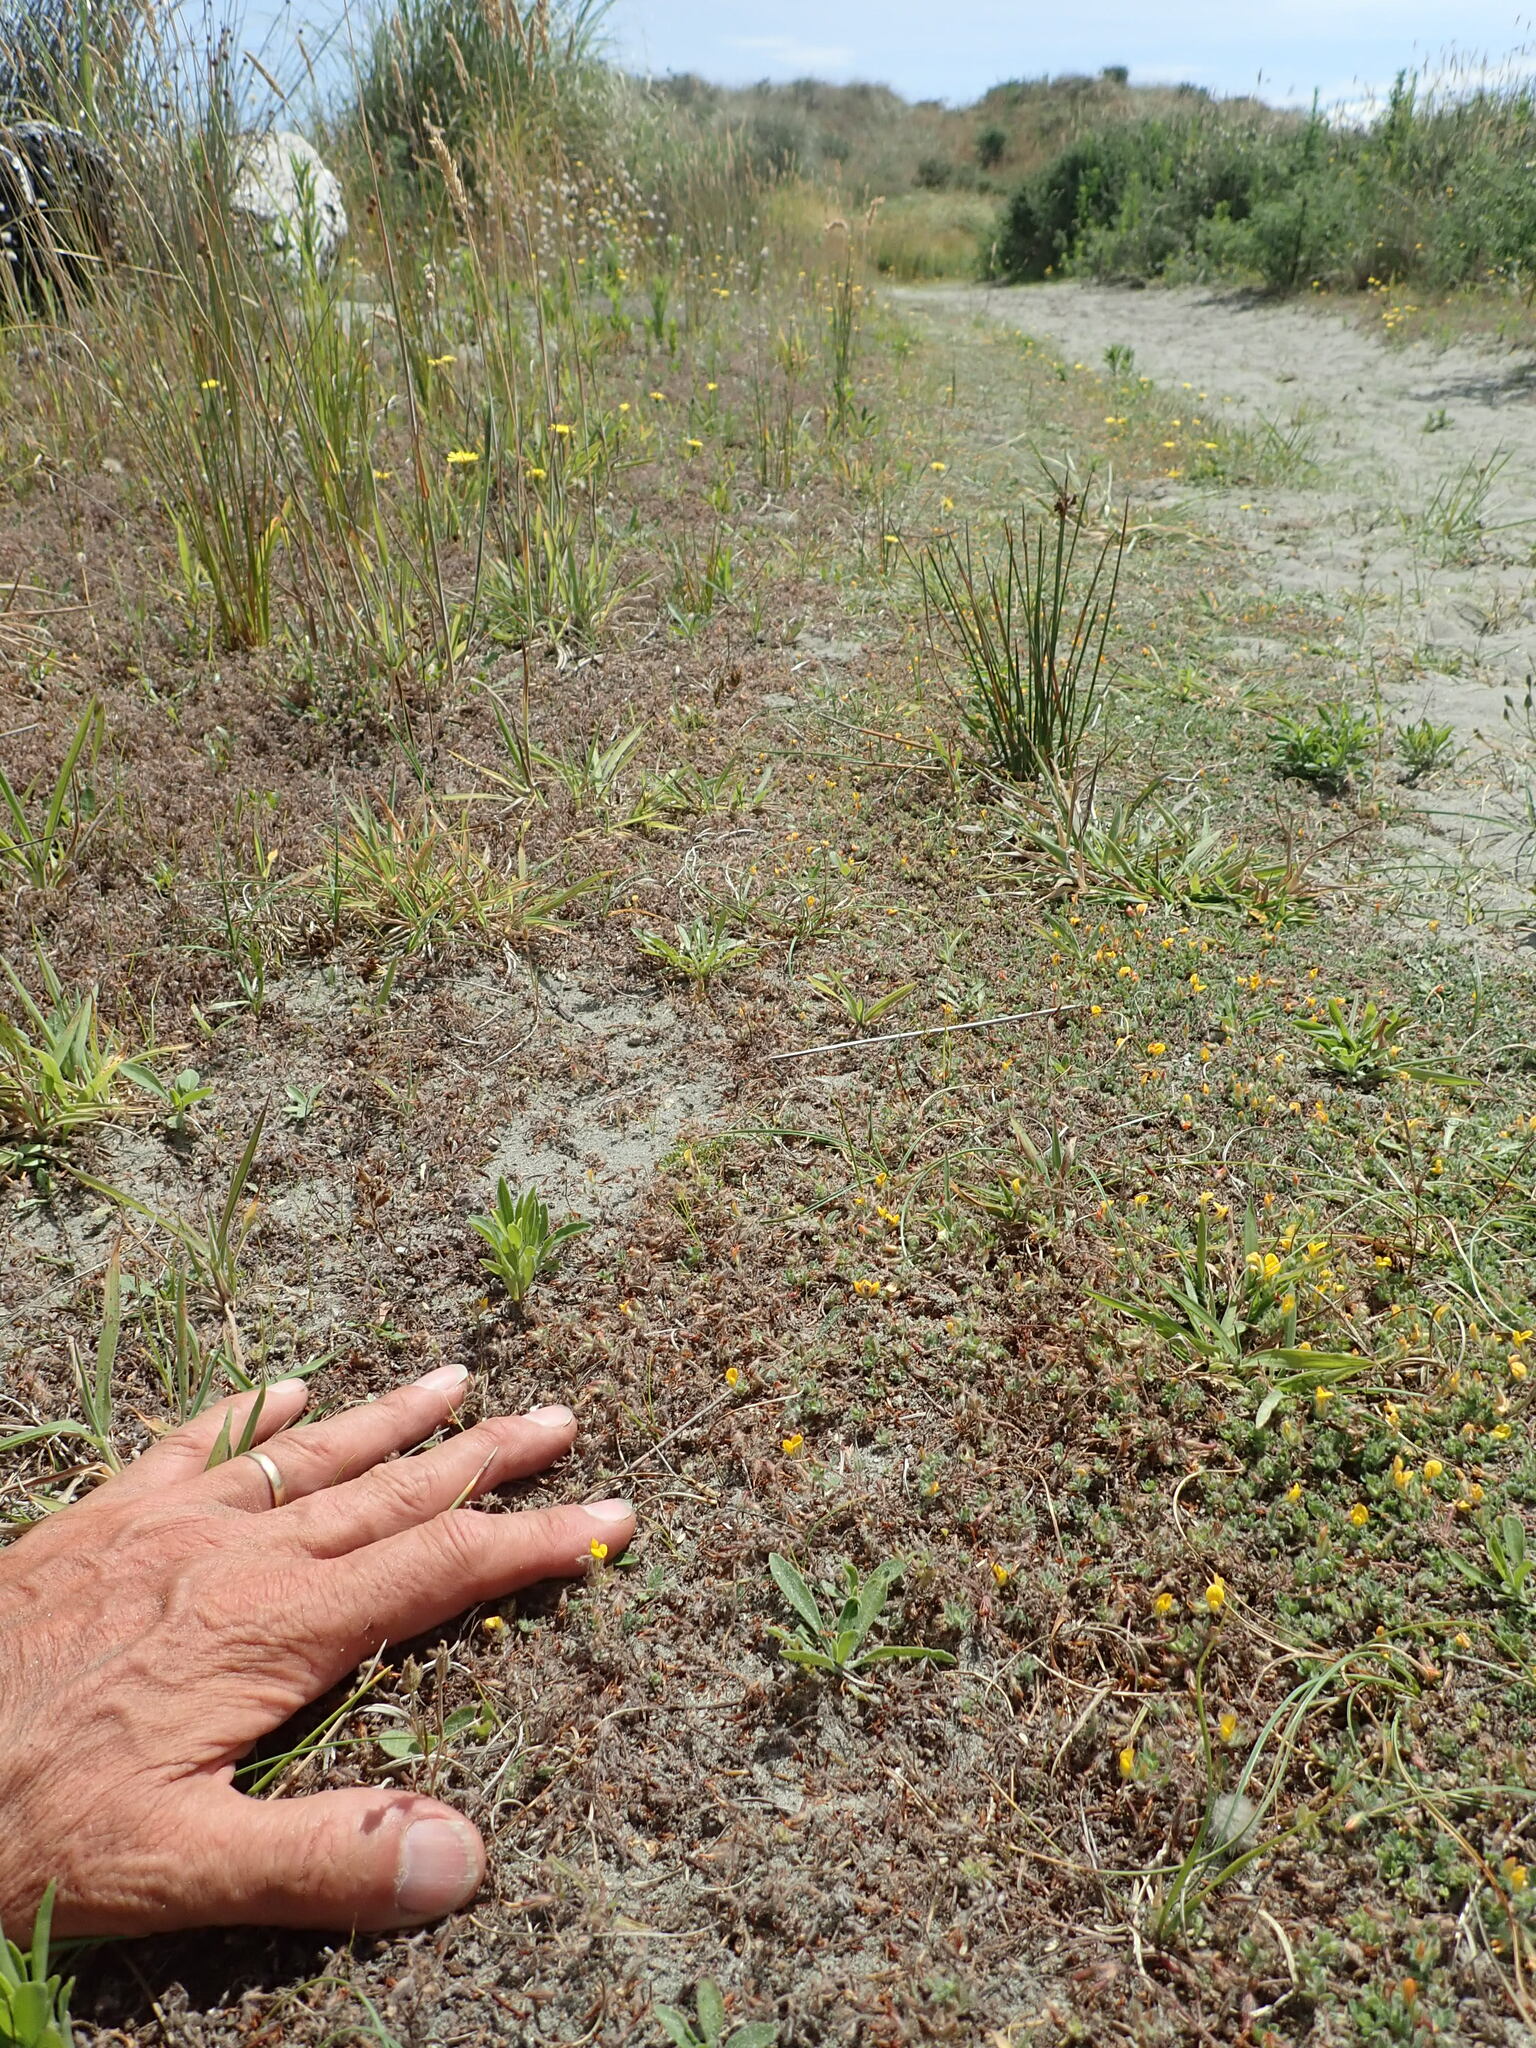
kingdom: Plantae
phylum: Tracheophyta
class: Magnoliopsida
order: Fabales
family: Fabaceae
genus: Lotus
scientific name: Lotus subbiflorus
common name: Hairy bird's-foot trefoil
